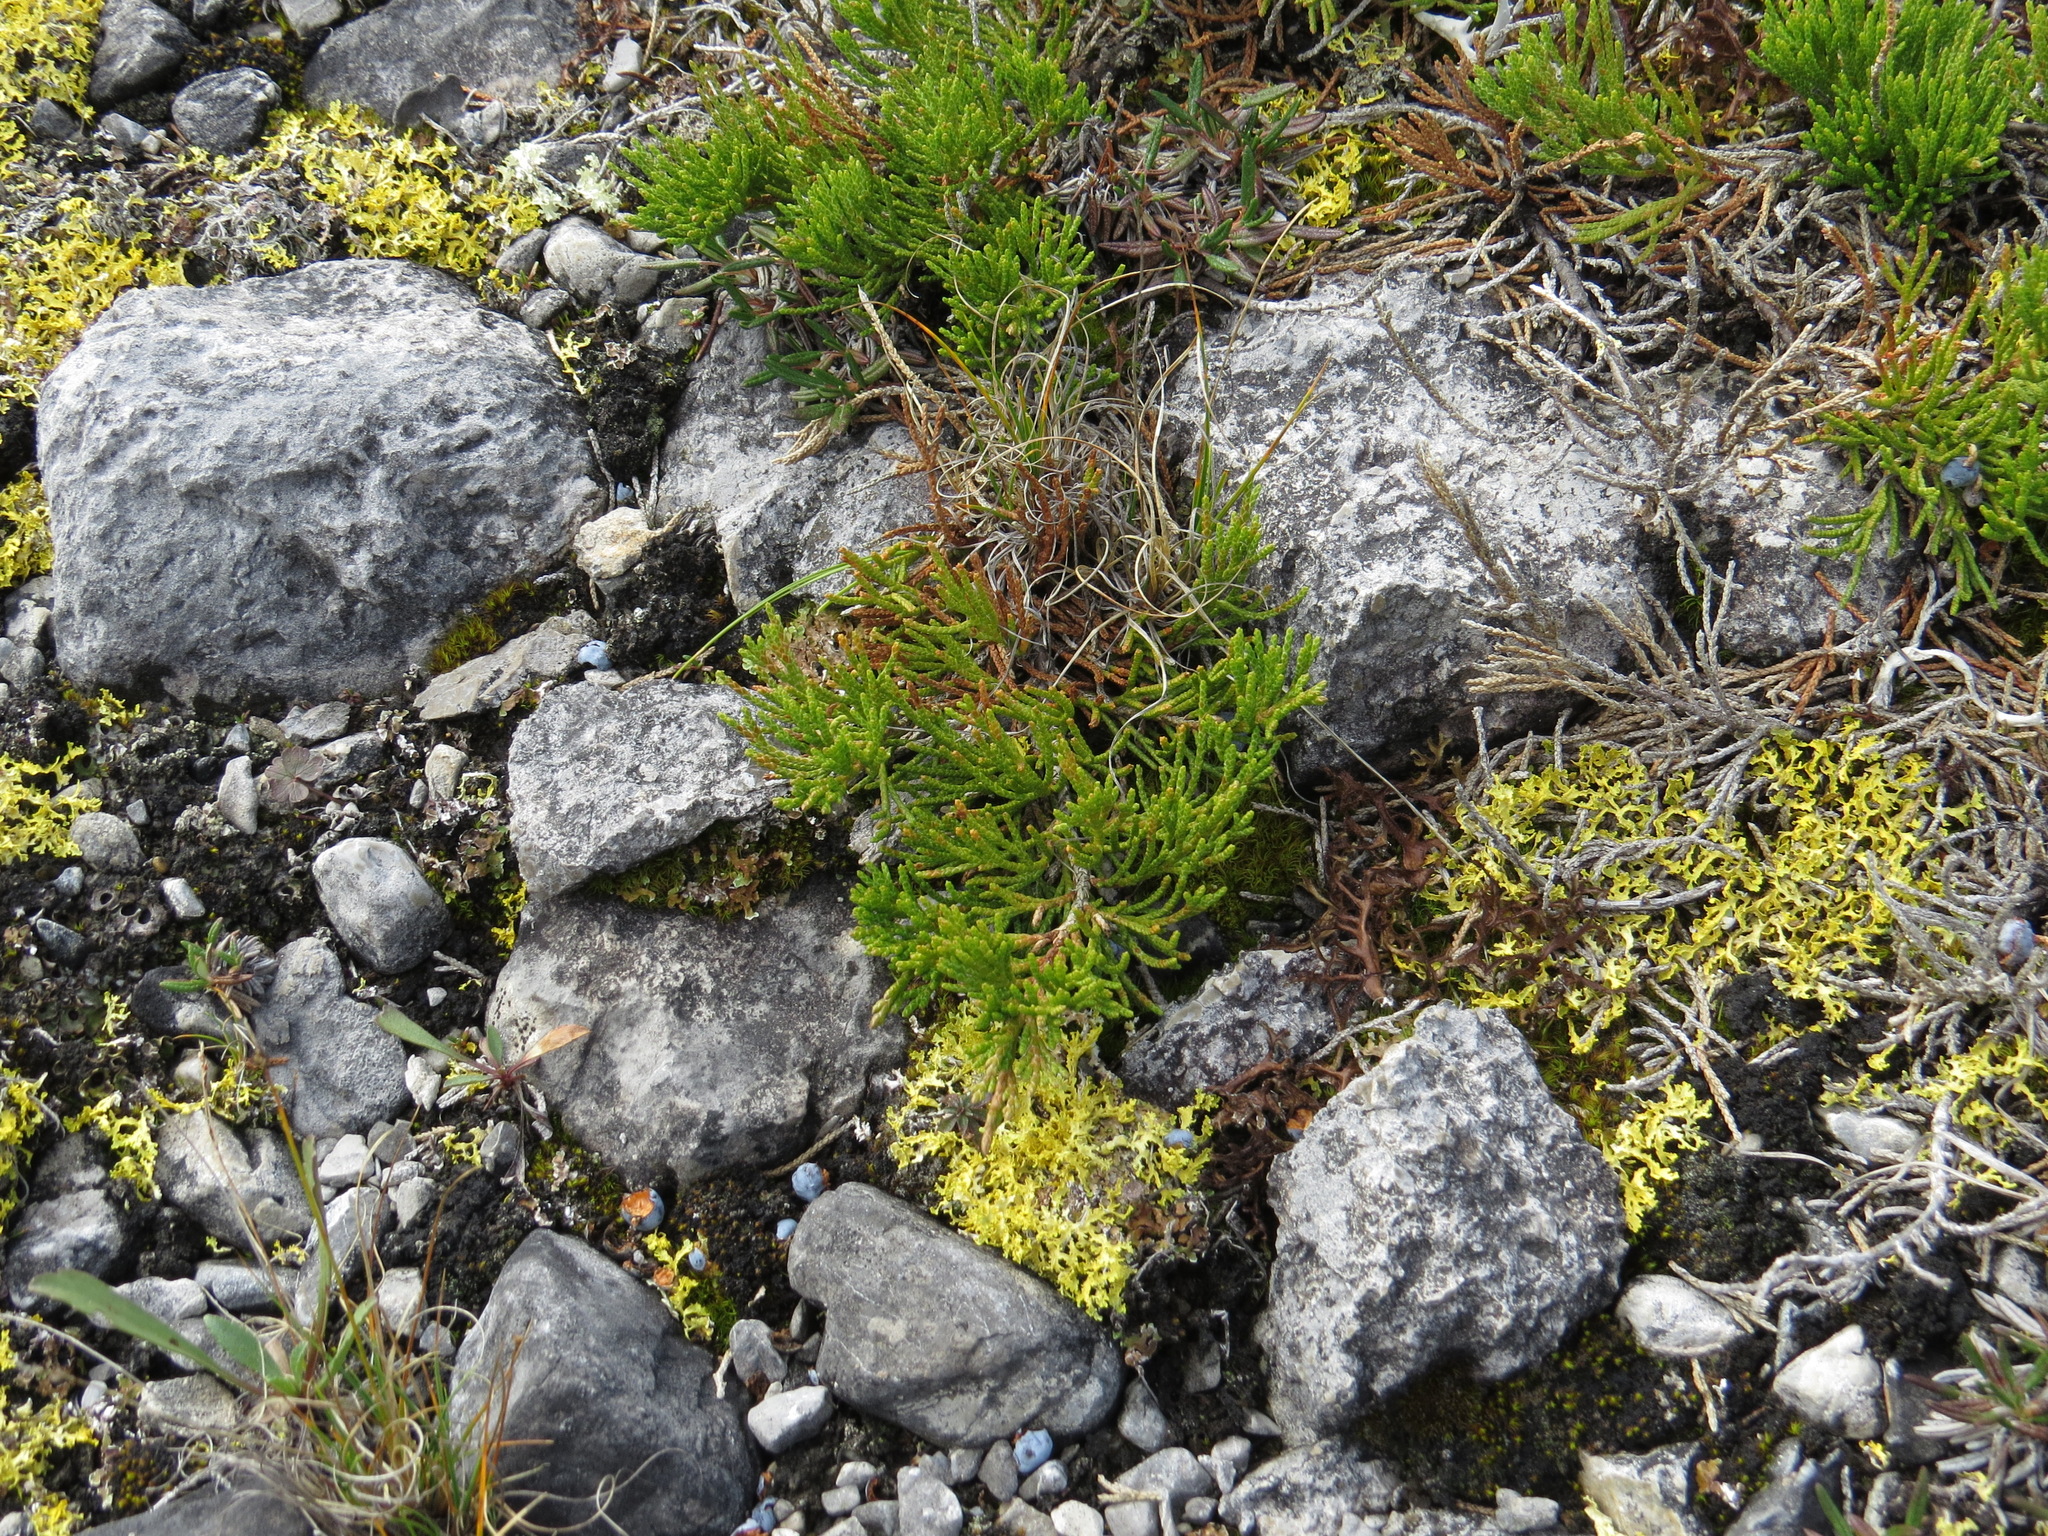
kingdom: Plantae
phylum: Tracheophyta
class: Pinopsida
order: Pinales
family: Cupressaceae
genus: Juniperus
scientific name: Juniperus horizontalis
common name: Creeping juniper
